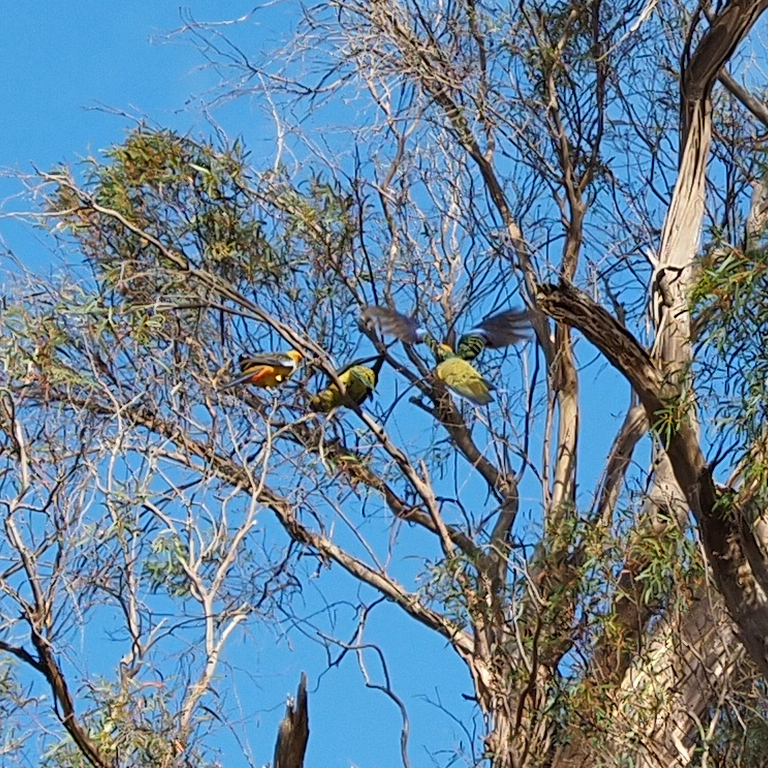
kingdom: Animalia
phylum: Chordata
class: Aves
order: Psittaciformes
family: Psittacidae
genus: Platycercus
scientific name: Platycercus caledonicus
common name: Green rosella
